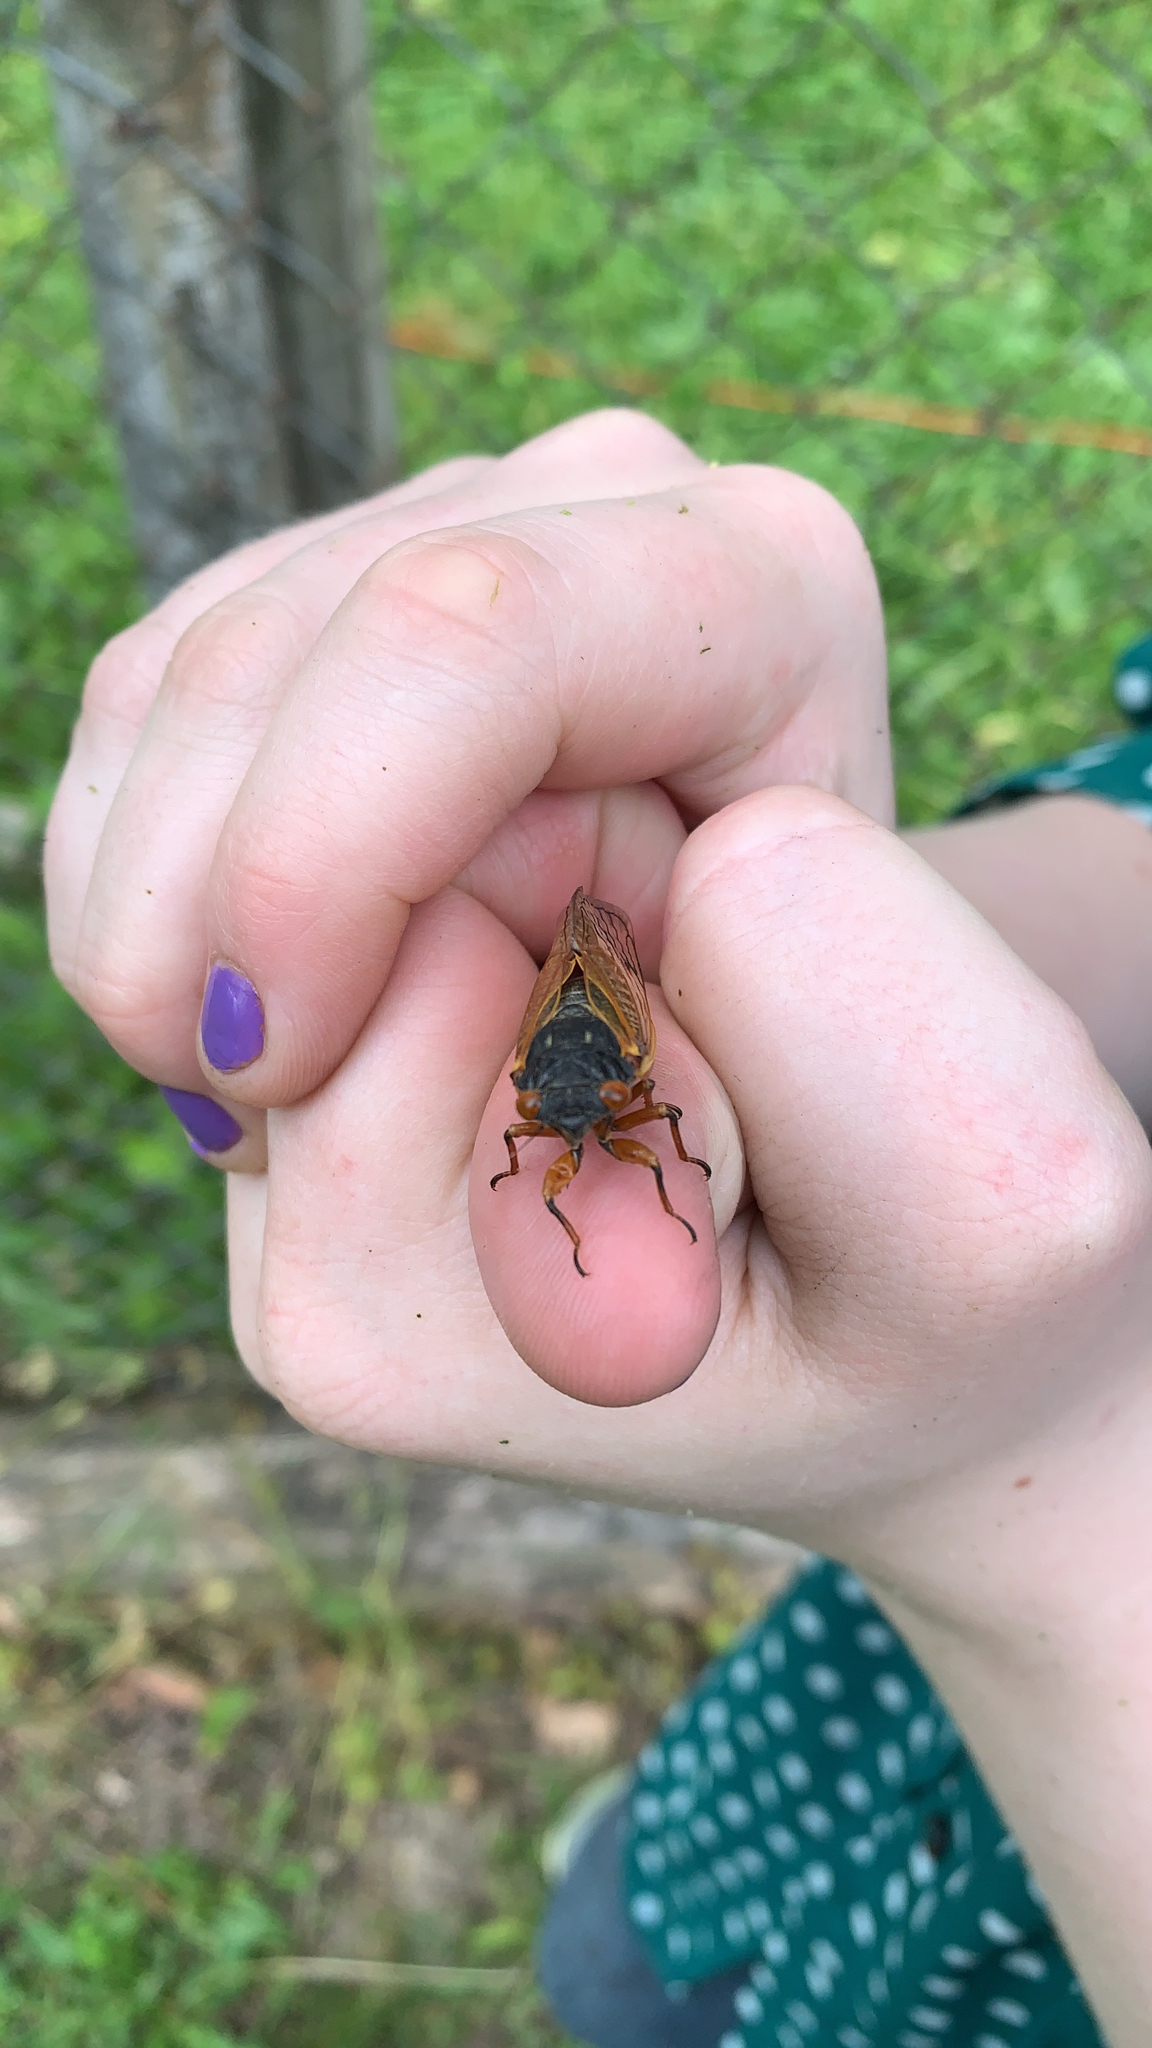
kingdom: Animalia
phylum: Arthropoda
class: Insecta
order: Hemiptera
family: Cicadidae
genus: Magicicada
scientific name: Magicicada
